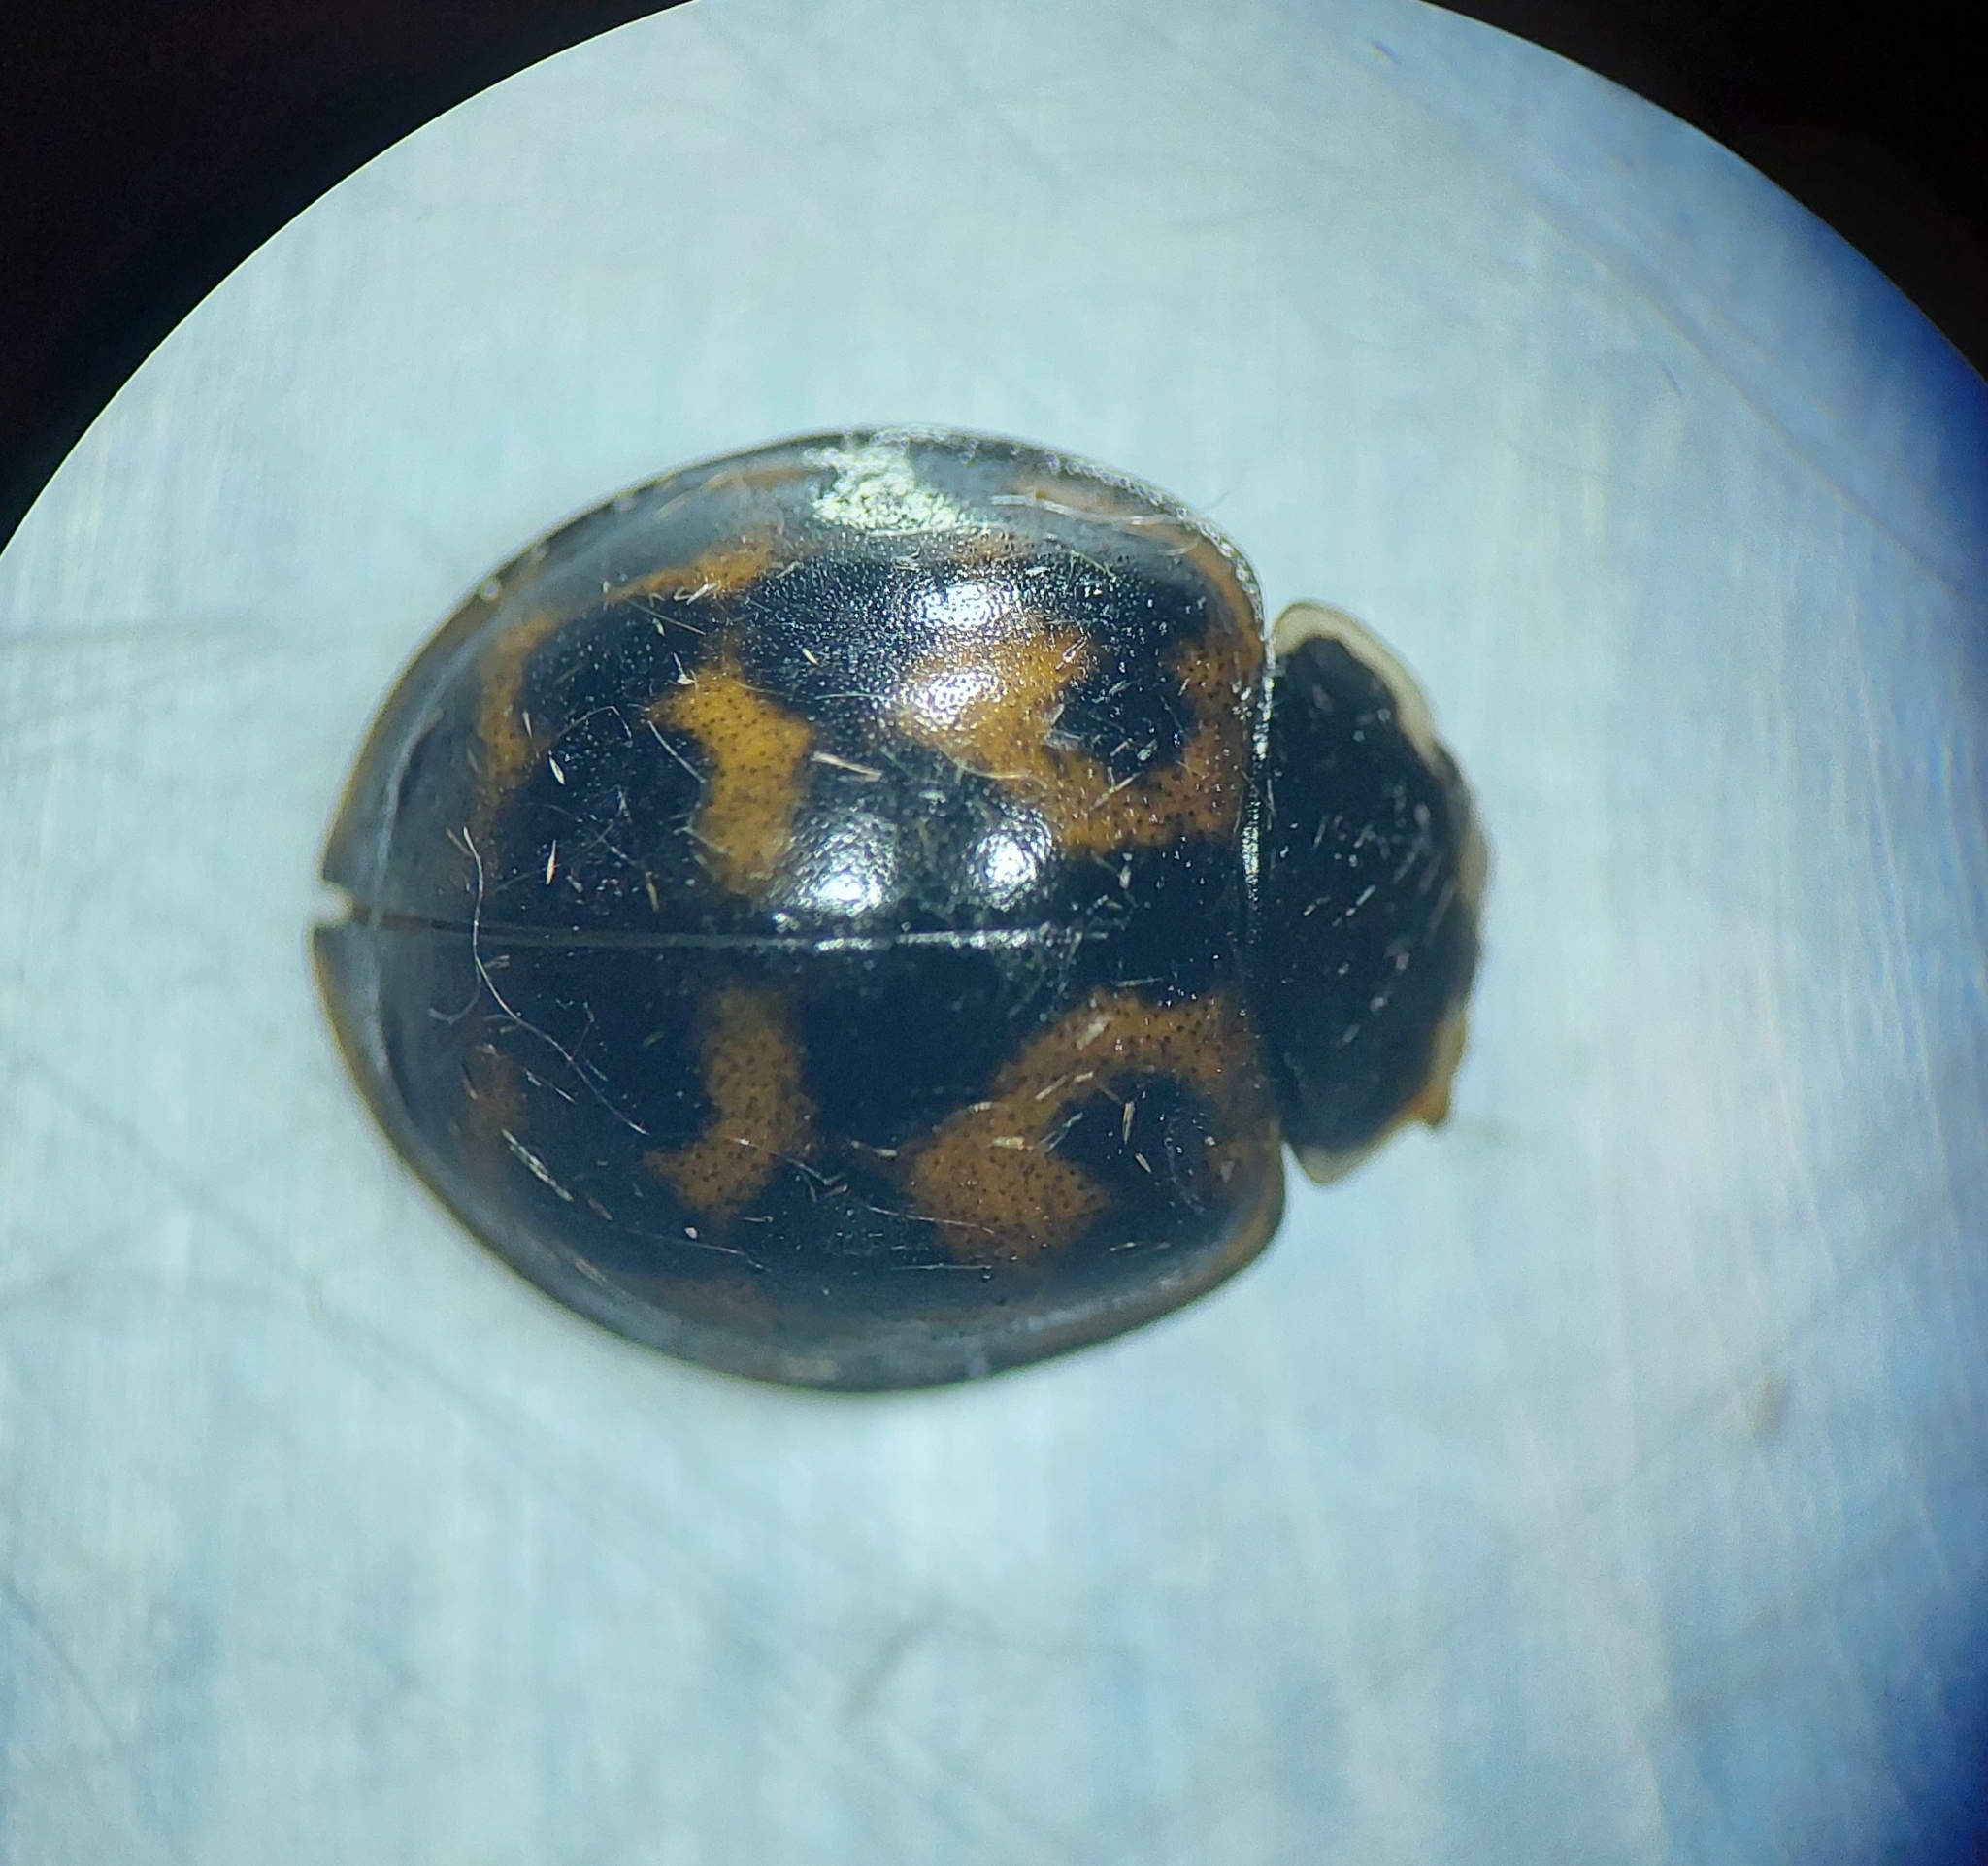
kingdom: Animalia
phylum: Arthropoda
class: Insecta
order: Coleoptera
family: Coccinellidae
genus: Harmonia
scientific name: Harmonia axyridis
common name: Harlequin ladybird
